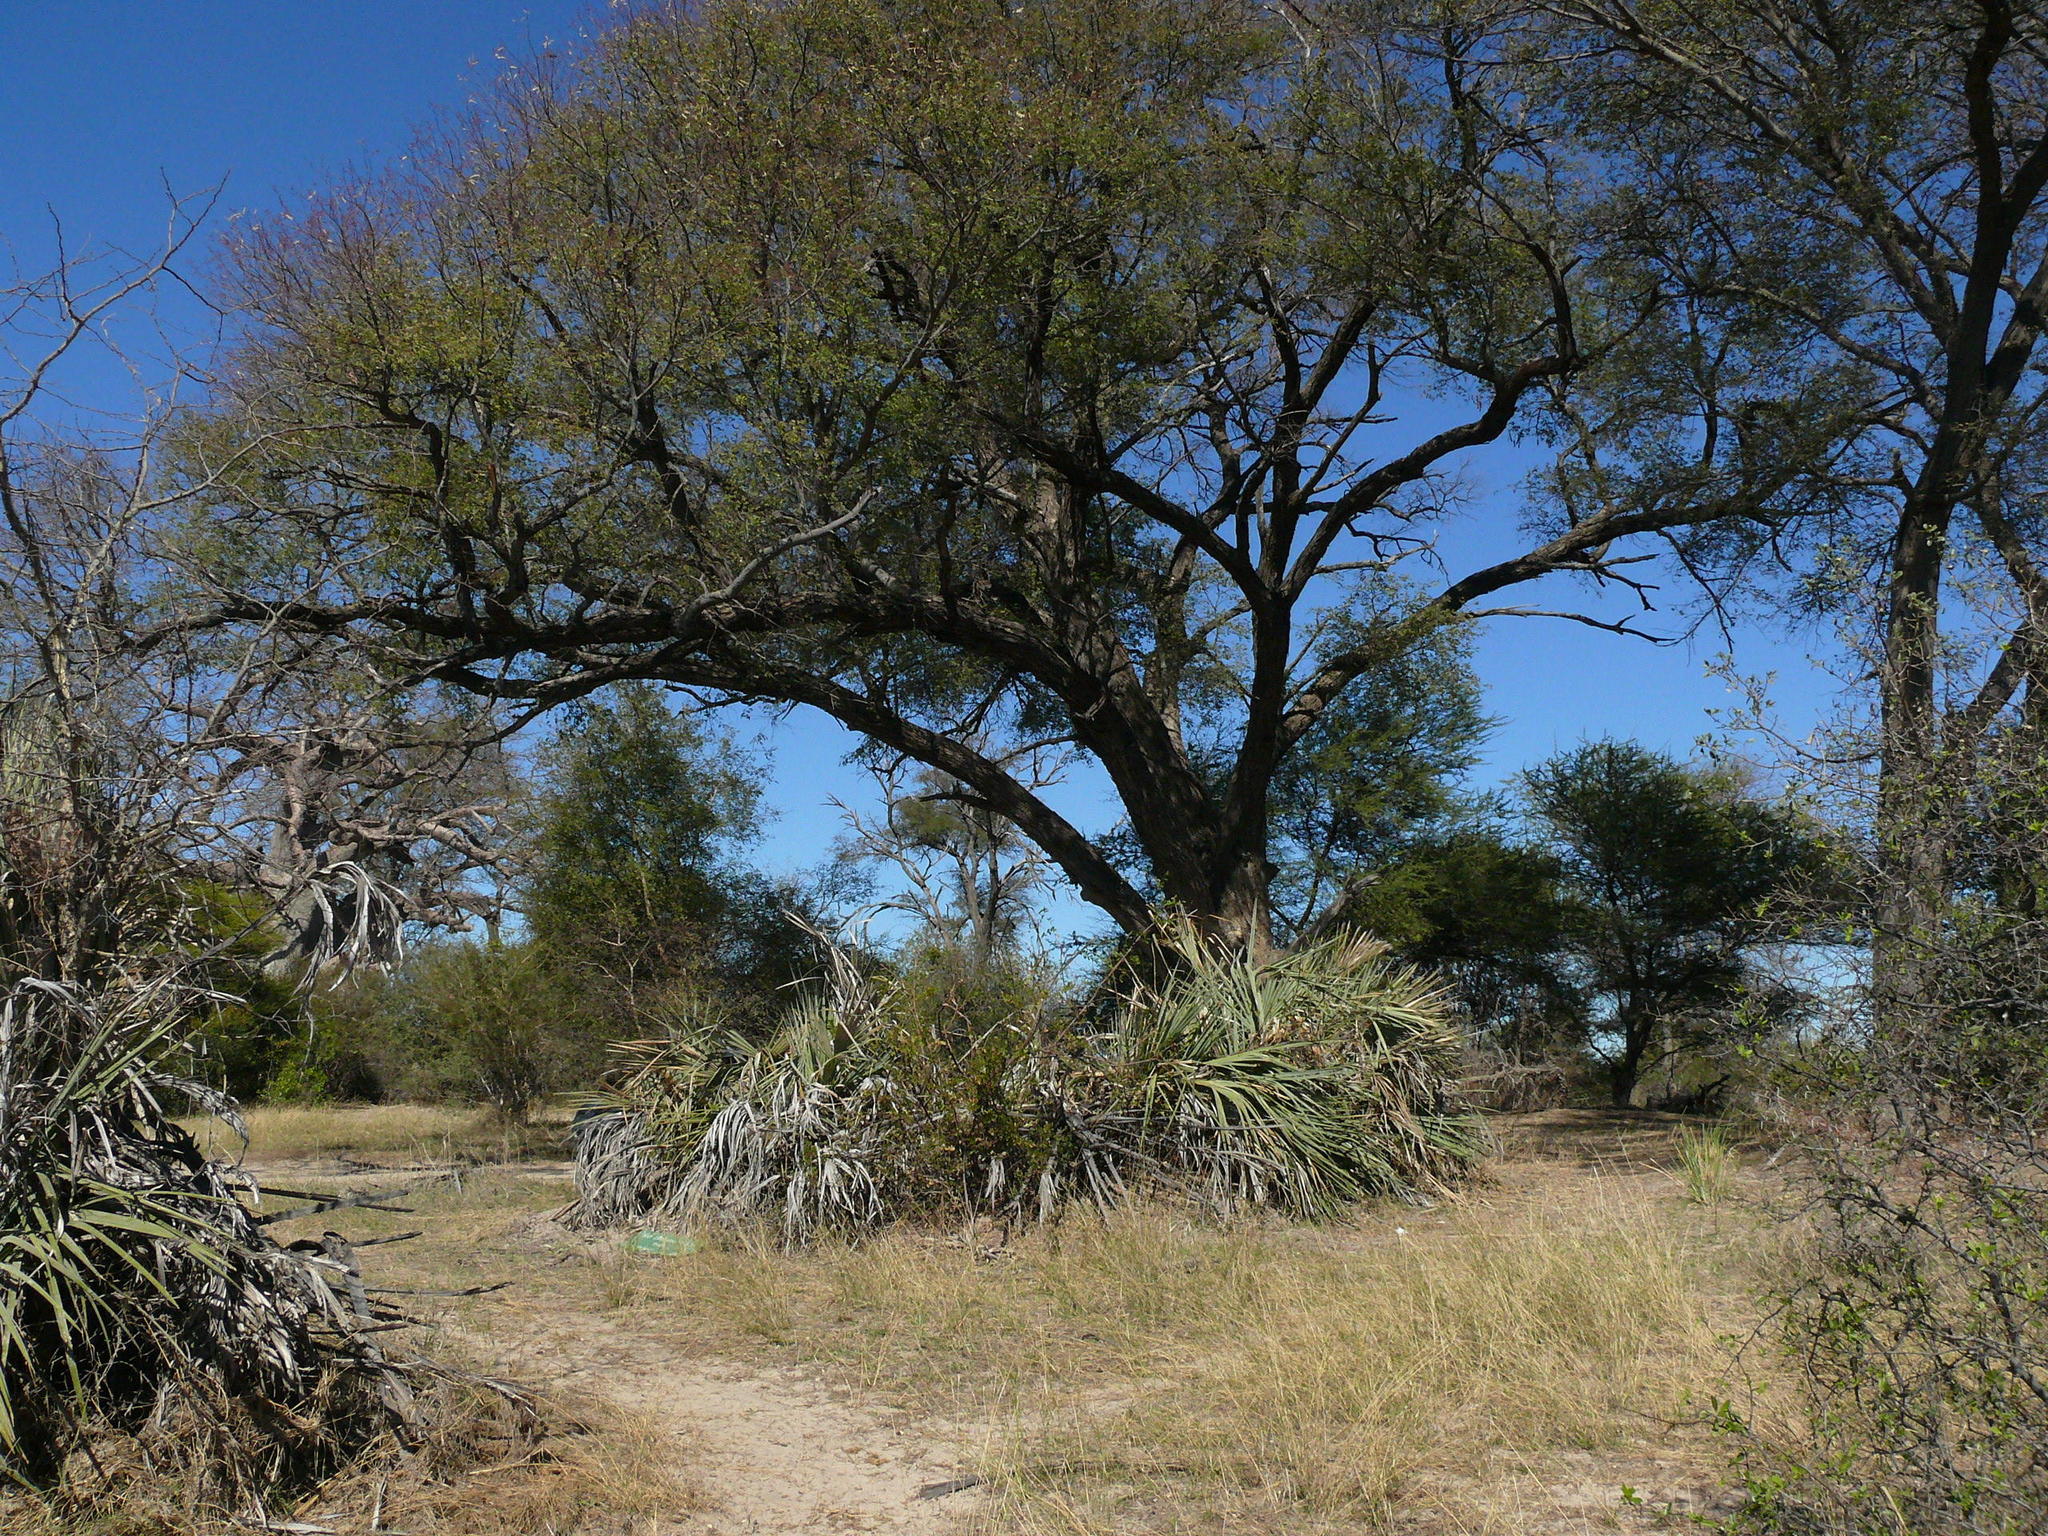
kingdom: Plantae
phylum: Tracheophyta
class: Liliopsida
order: Arecales
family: Arecaceae
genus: Hyphaene
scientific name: Hyphaene petersiana
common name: African ivory nut palm
